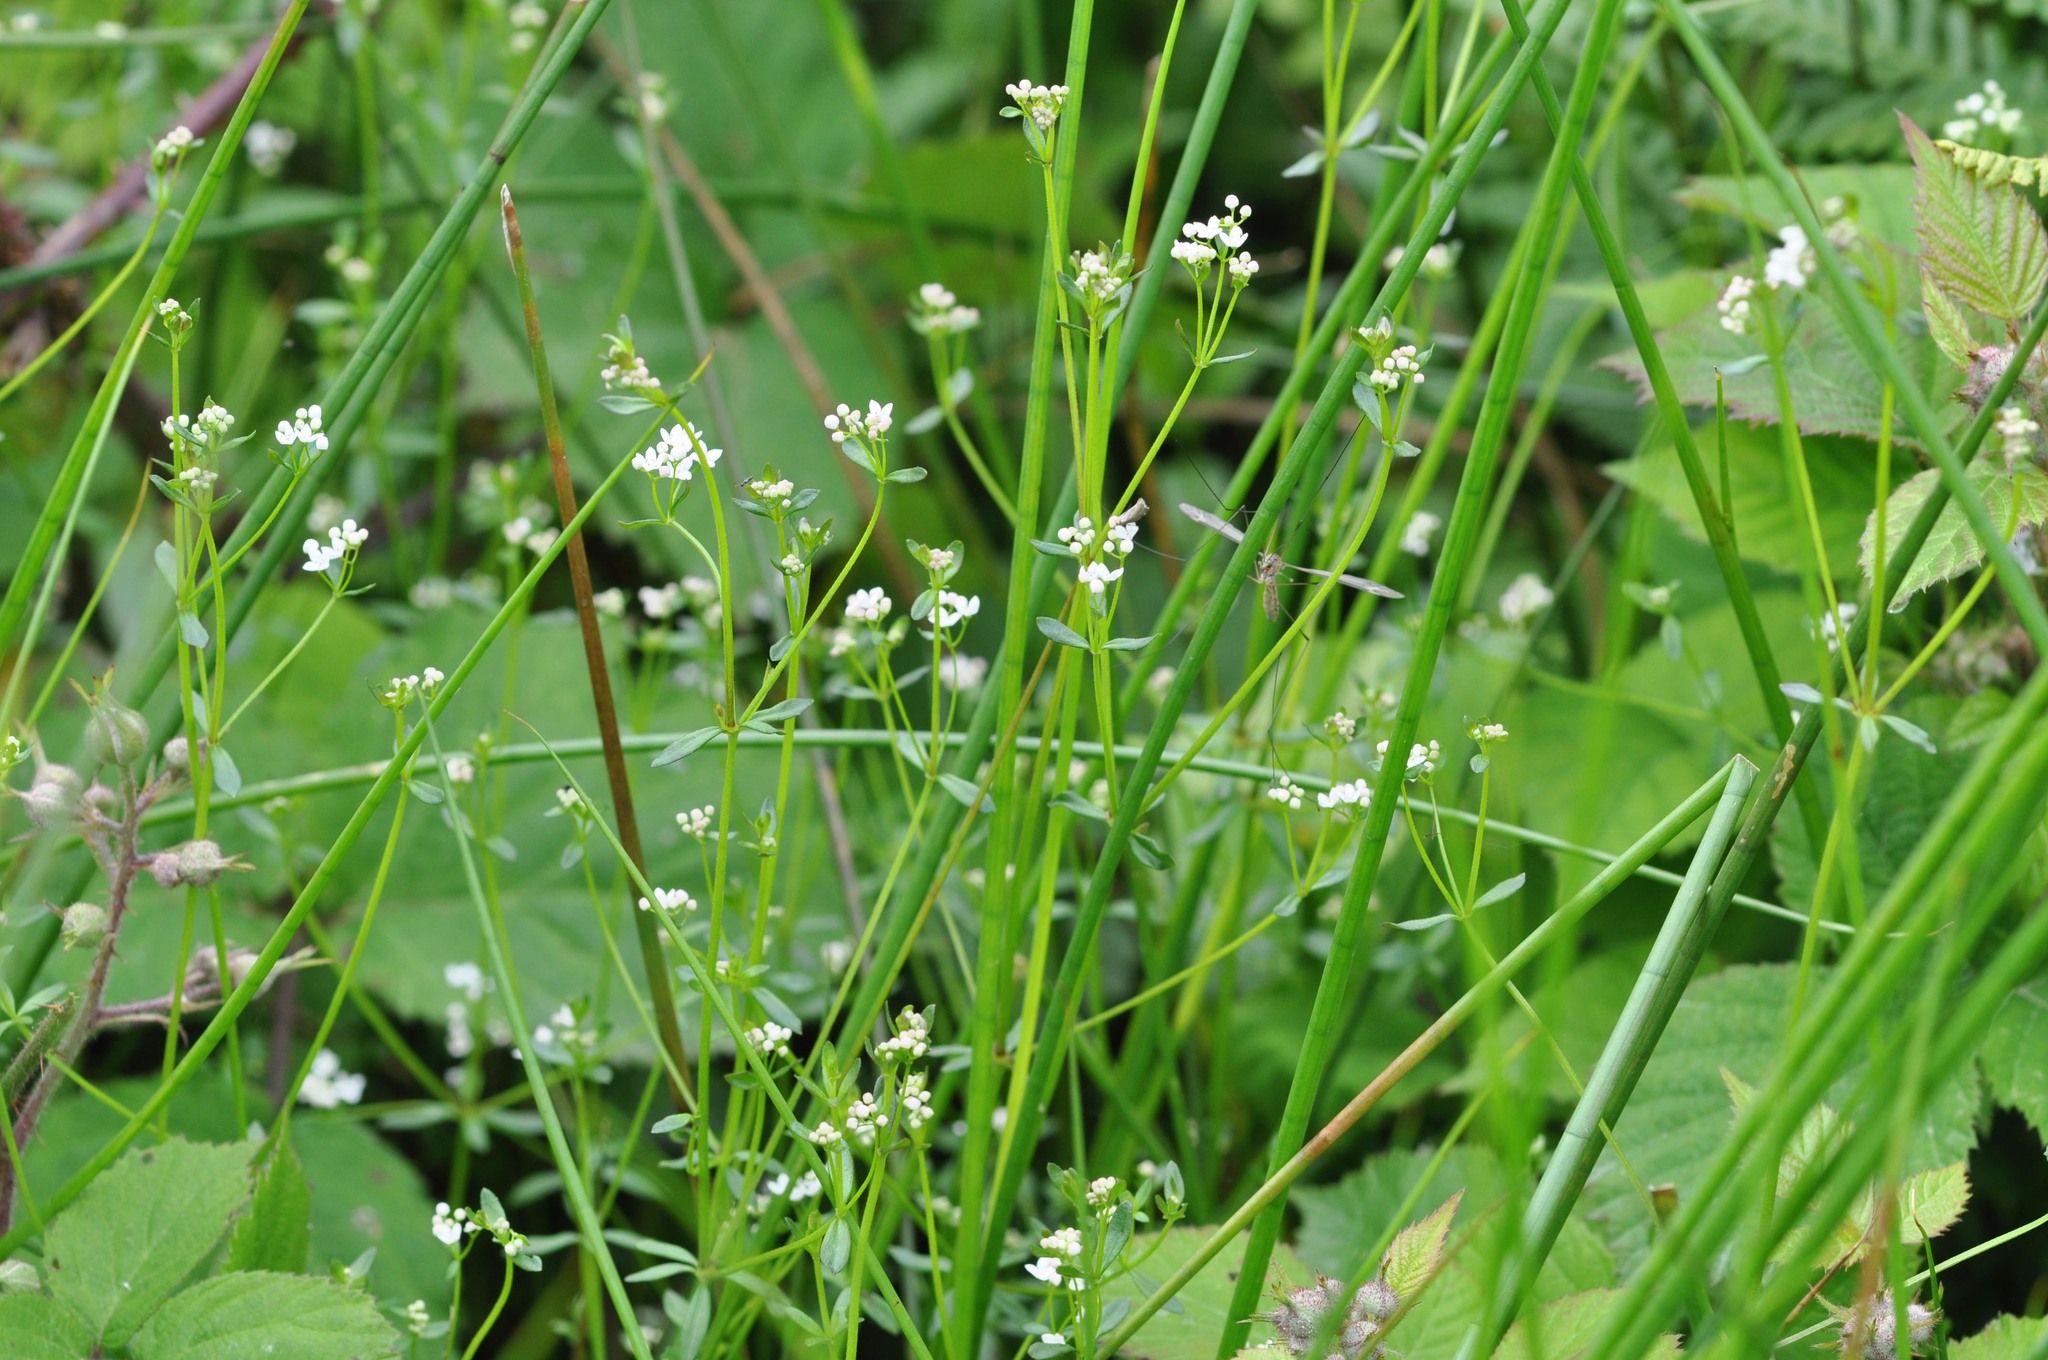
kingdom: Plantae
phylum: Tracheophyta
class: Magnoliopsida
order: Gentianales
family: Rubiaceae
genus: Galium
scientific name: Galium palustre
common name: Common marsh-bedstraw
